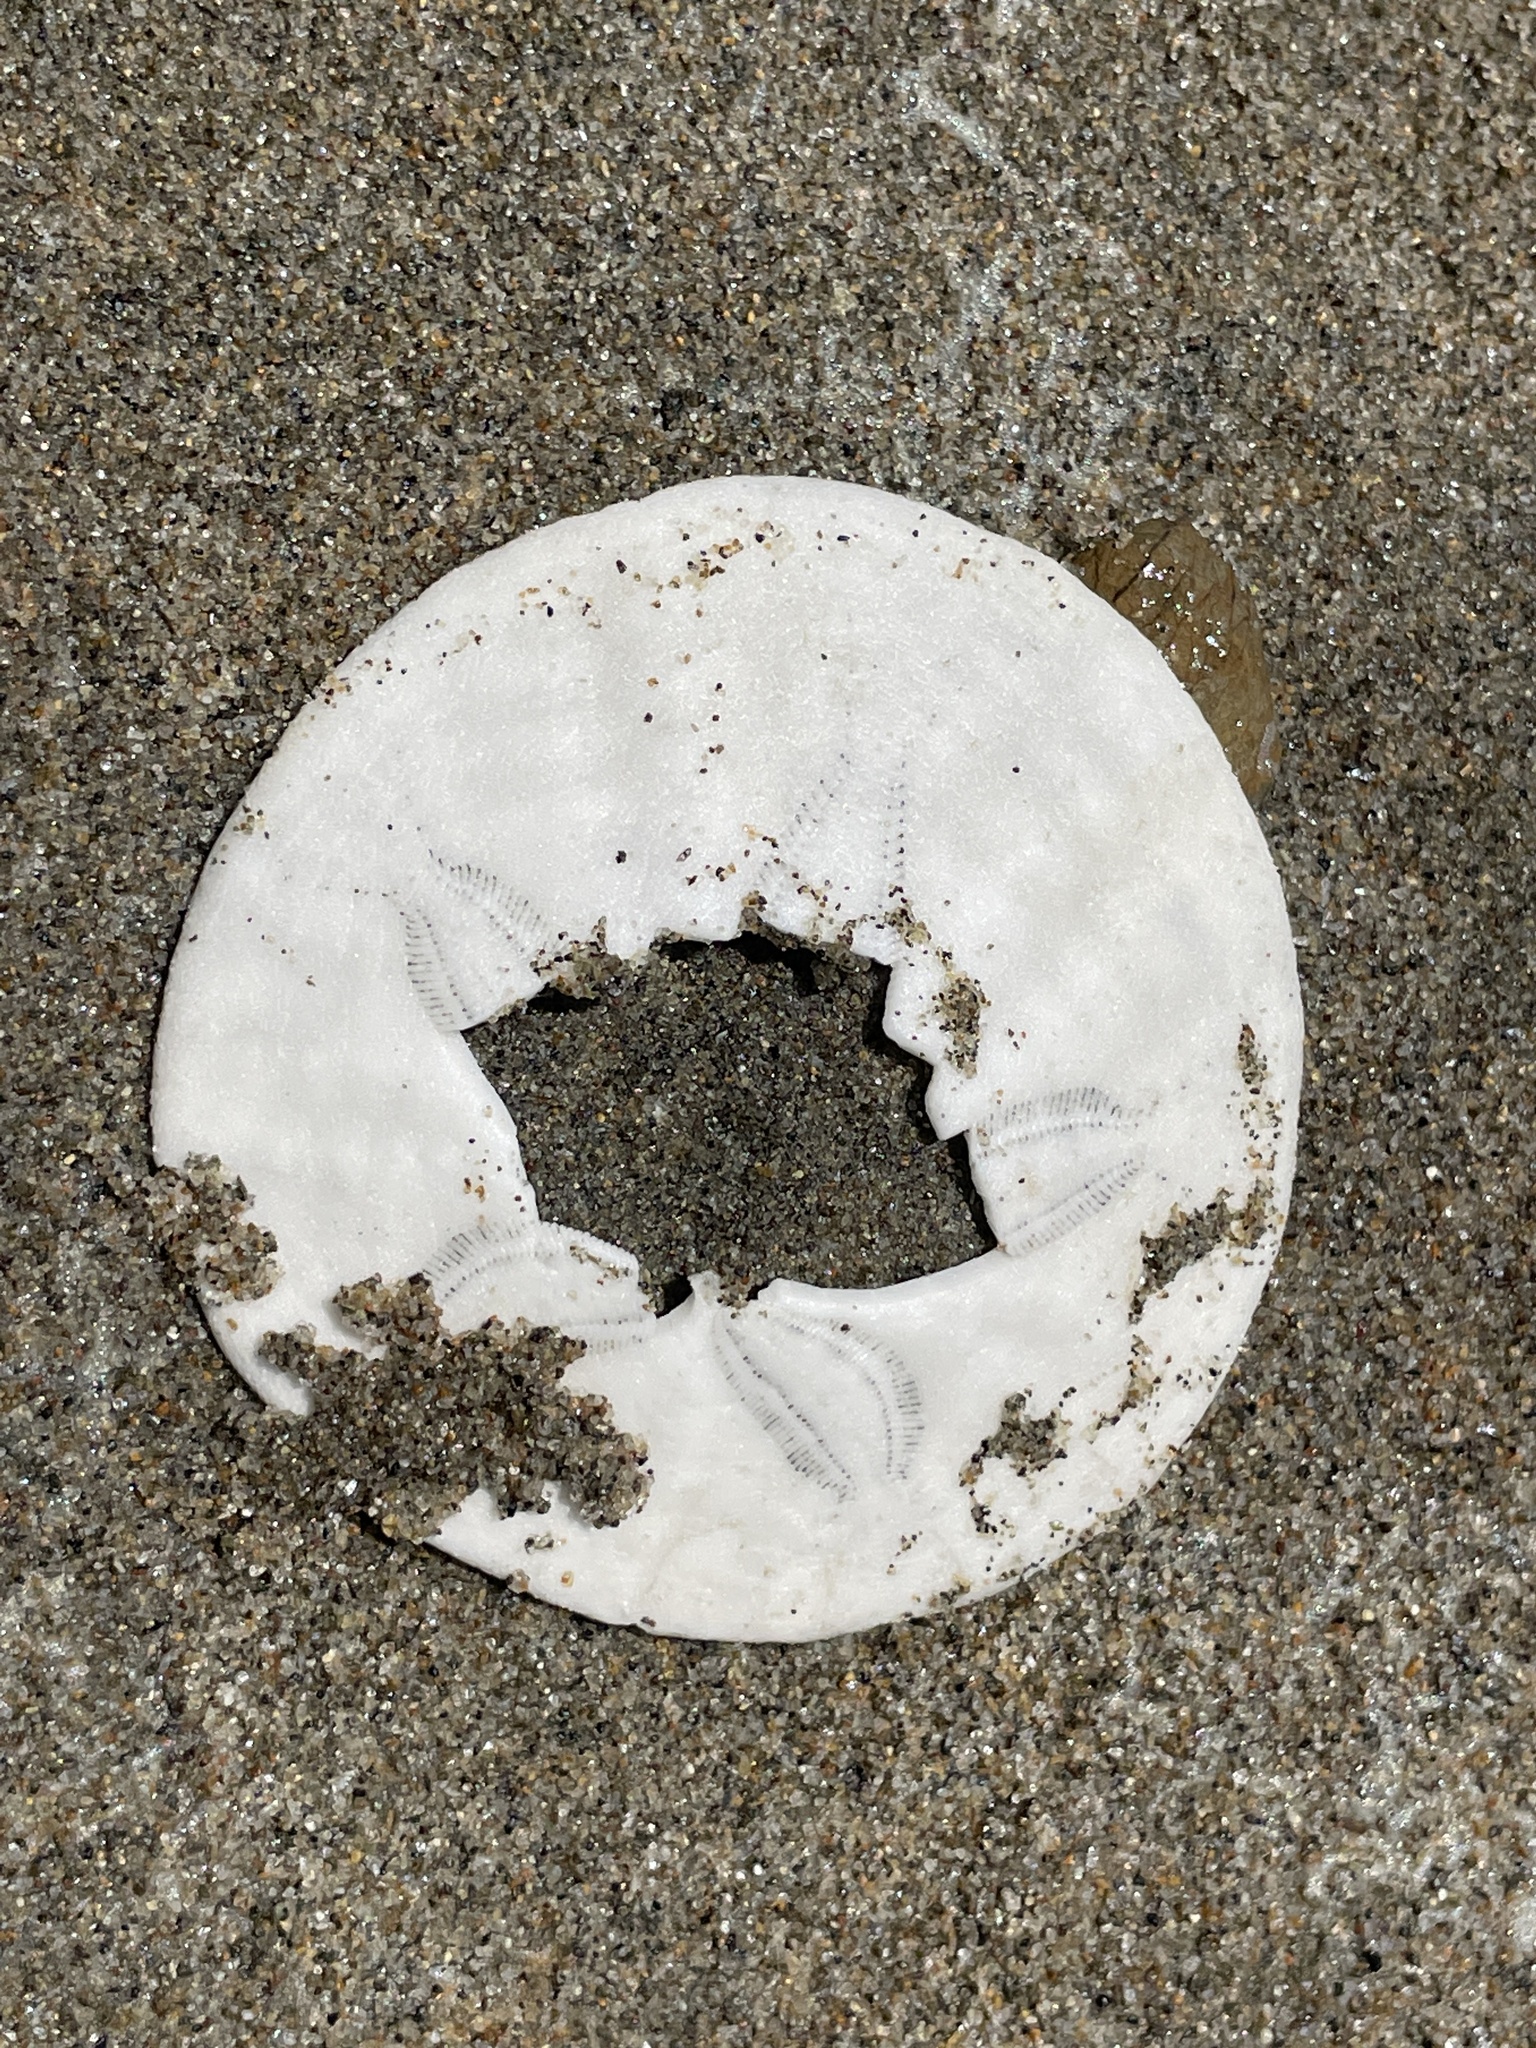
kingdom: Animalia
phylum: Echinodermata
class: Echinoidea
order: Echinolampadacea
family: Dendrasteridae
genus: Dendraster
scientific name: Dendraster excentricus
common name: Eccentric sand dollar sea urchin
